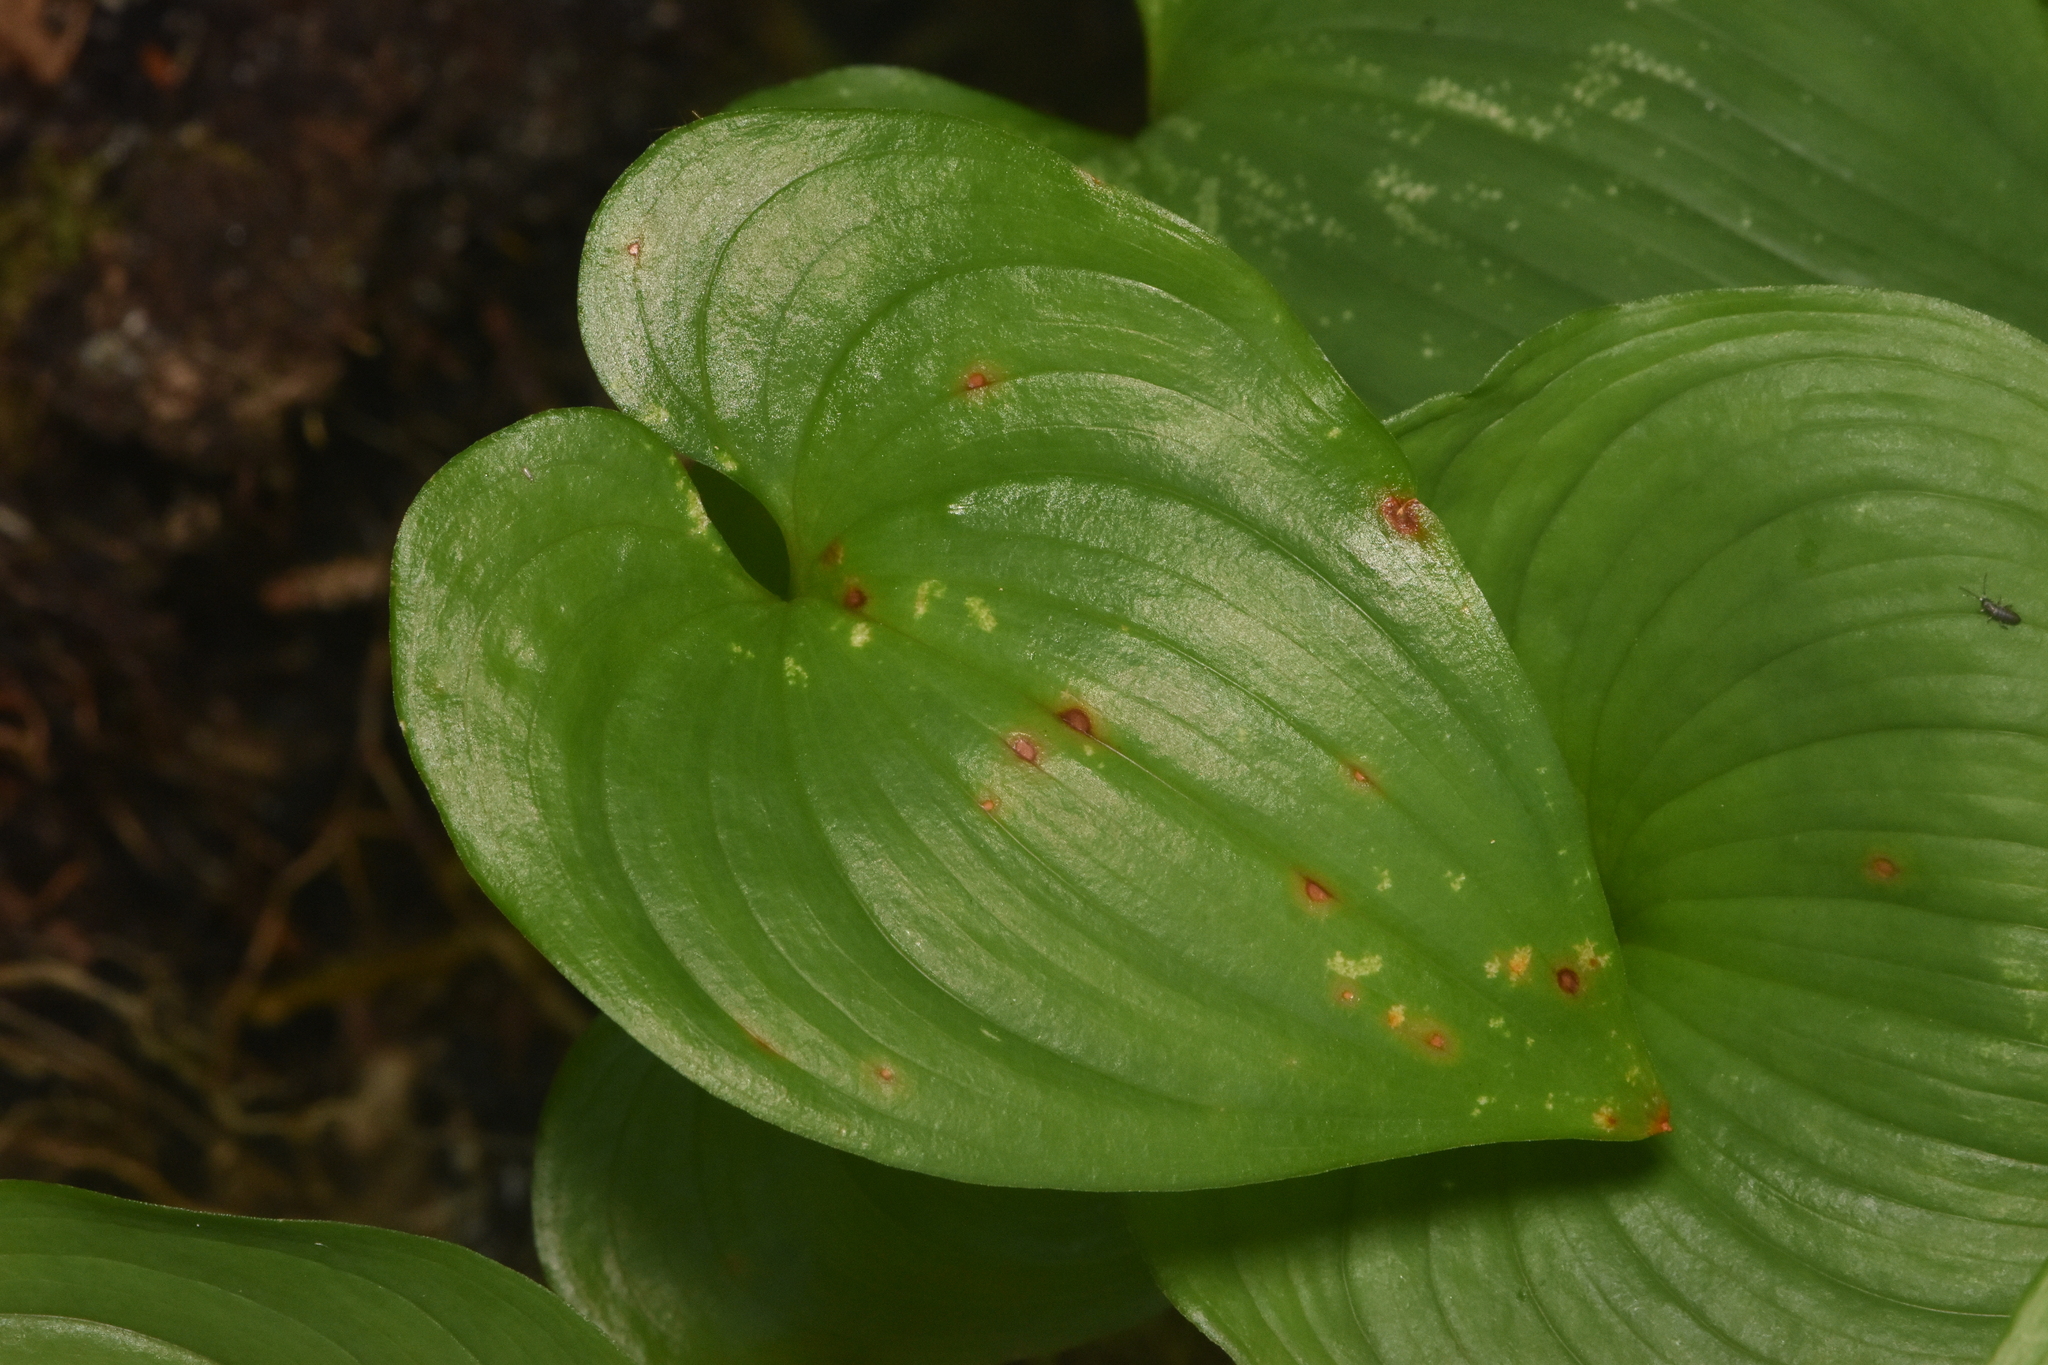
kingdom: Plantae
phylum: Tracheophyta
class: Liliopsida
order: Asparagales
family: Asparagaceae
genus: Maianthemum
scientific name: Maianthemum dilatatum
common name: False lily-of-the-valley
